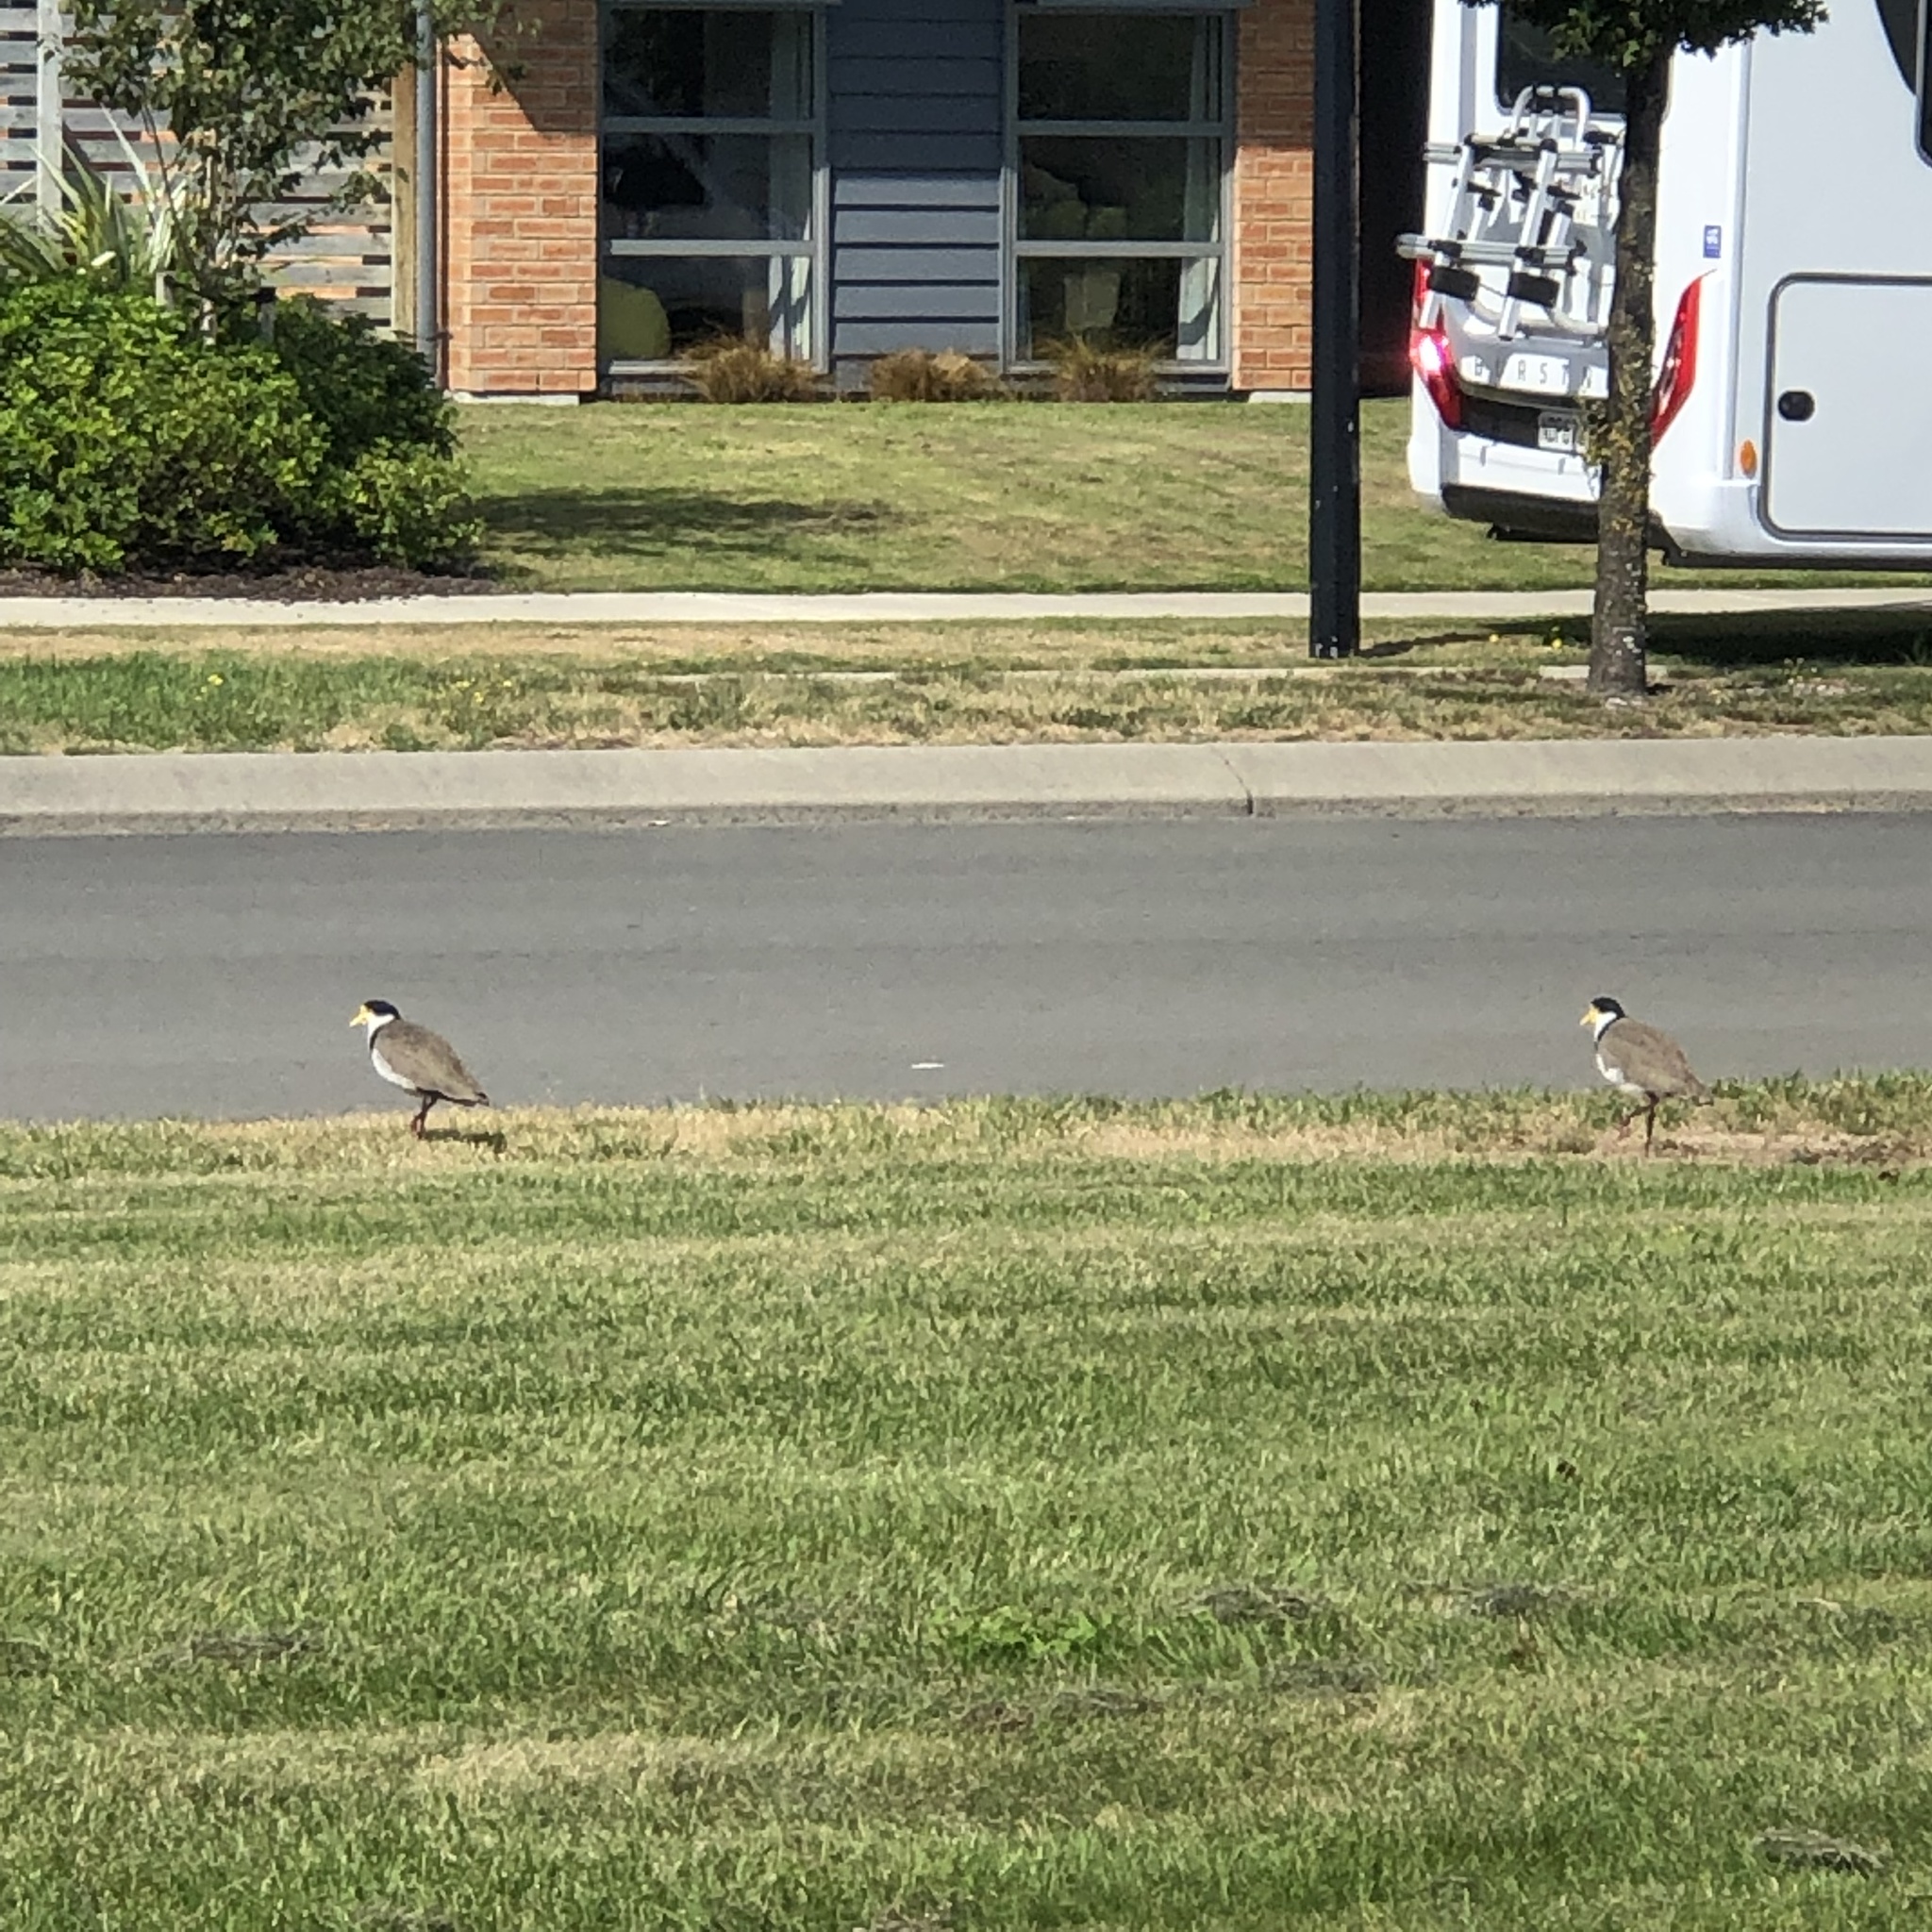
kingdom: Animalia
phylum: Chordata
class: Aves
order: Charadriiformes
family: Charadriidae
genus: Vanellus
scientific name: Vanellus miles
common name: Masked lapwing
